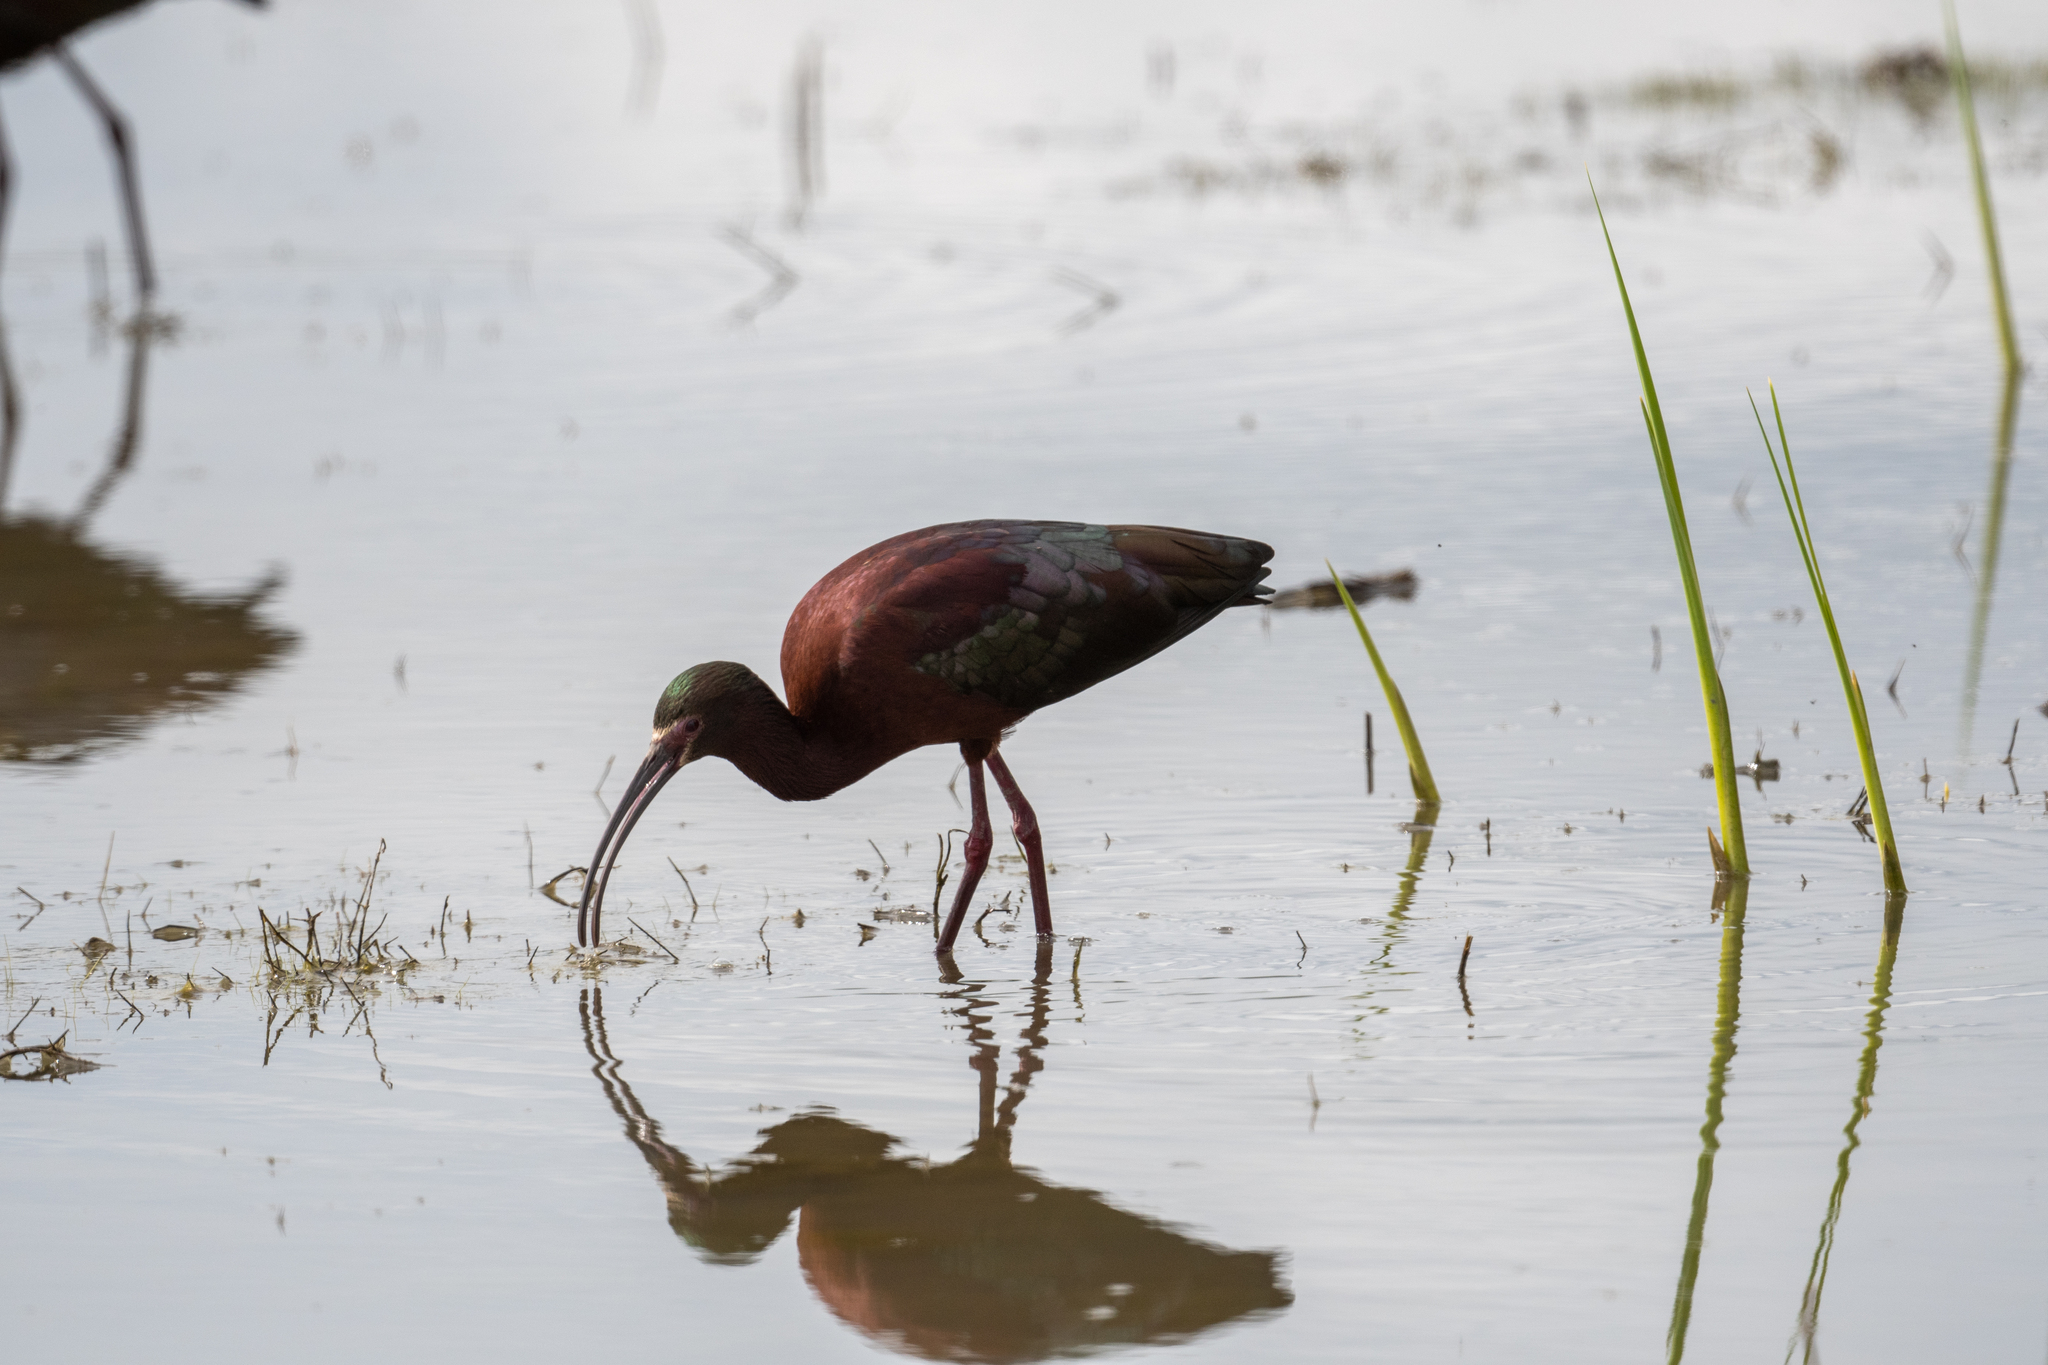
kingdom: Animalia
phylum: Chordata
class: Aves
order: Pelecaniformes
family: Threskiornithidae
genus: Plegadis
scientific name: Plegadis chihi
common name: White-faced ibis
